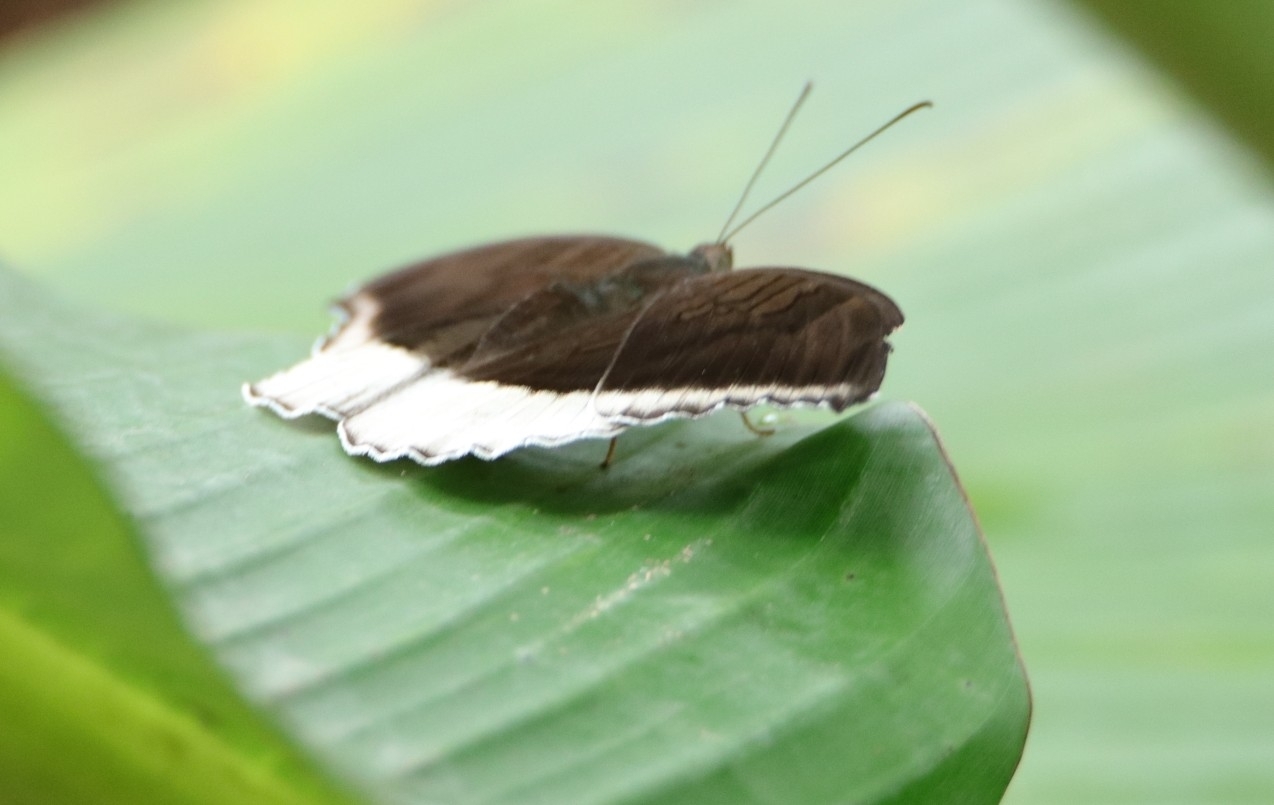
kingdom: Animalia
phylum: Arthropoda
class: Insecta
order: Lepidoptera
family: Nymphalidae
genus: Tanaecia
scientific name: Tanaecia lepidea
